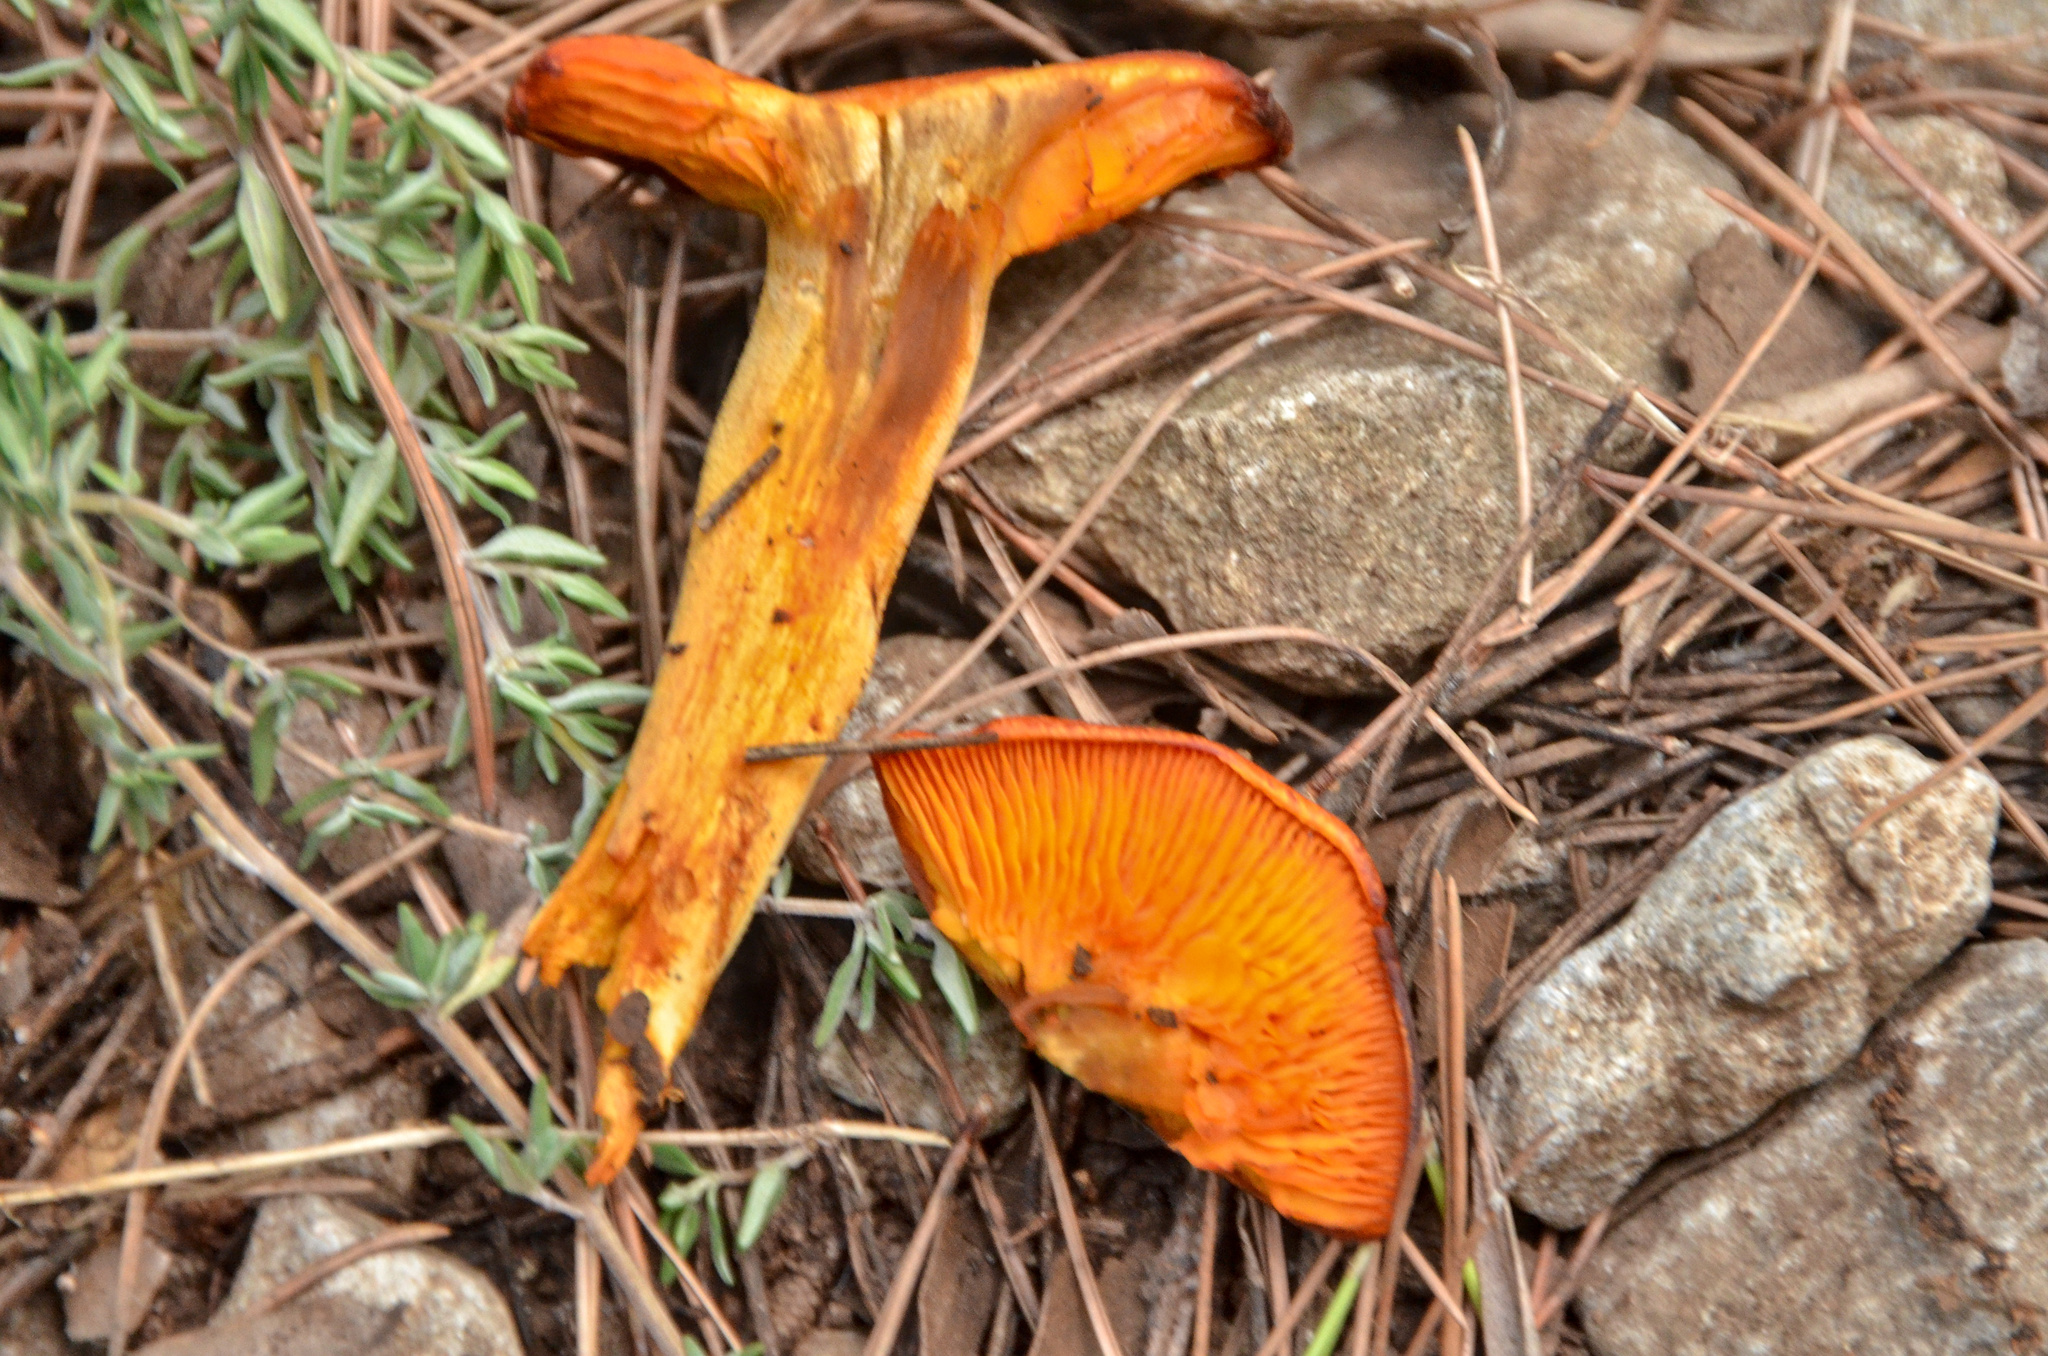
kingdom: Fungi
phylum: Basidiomycota
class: Agaricomycetes
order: Agaricales
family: Omphalotaceae
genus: Omphalotus
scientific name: Omphalotus olearius
